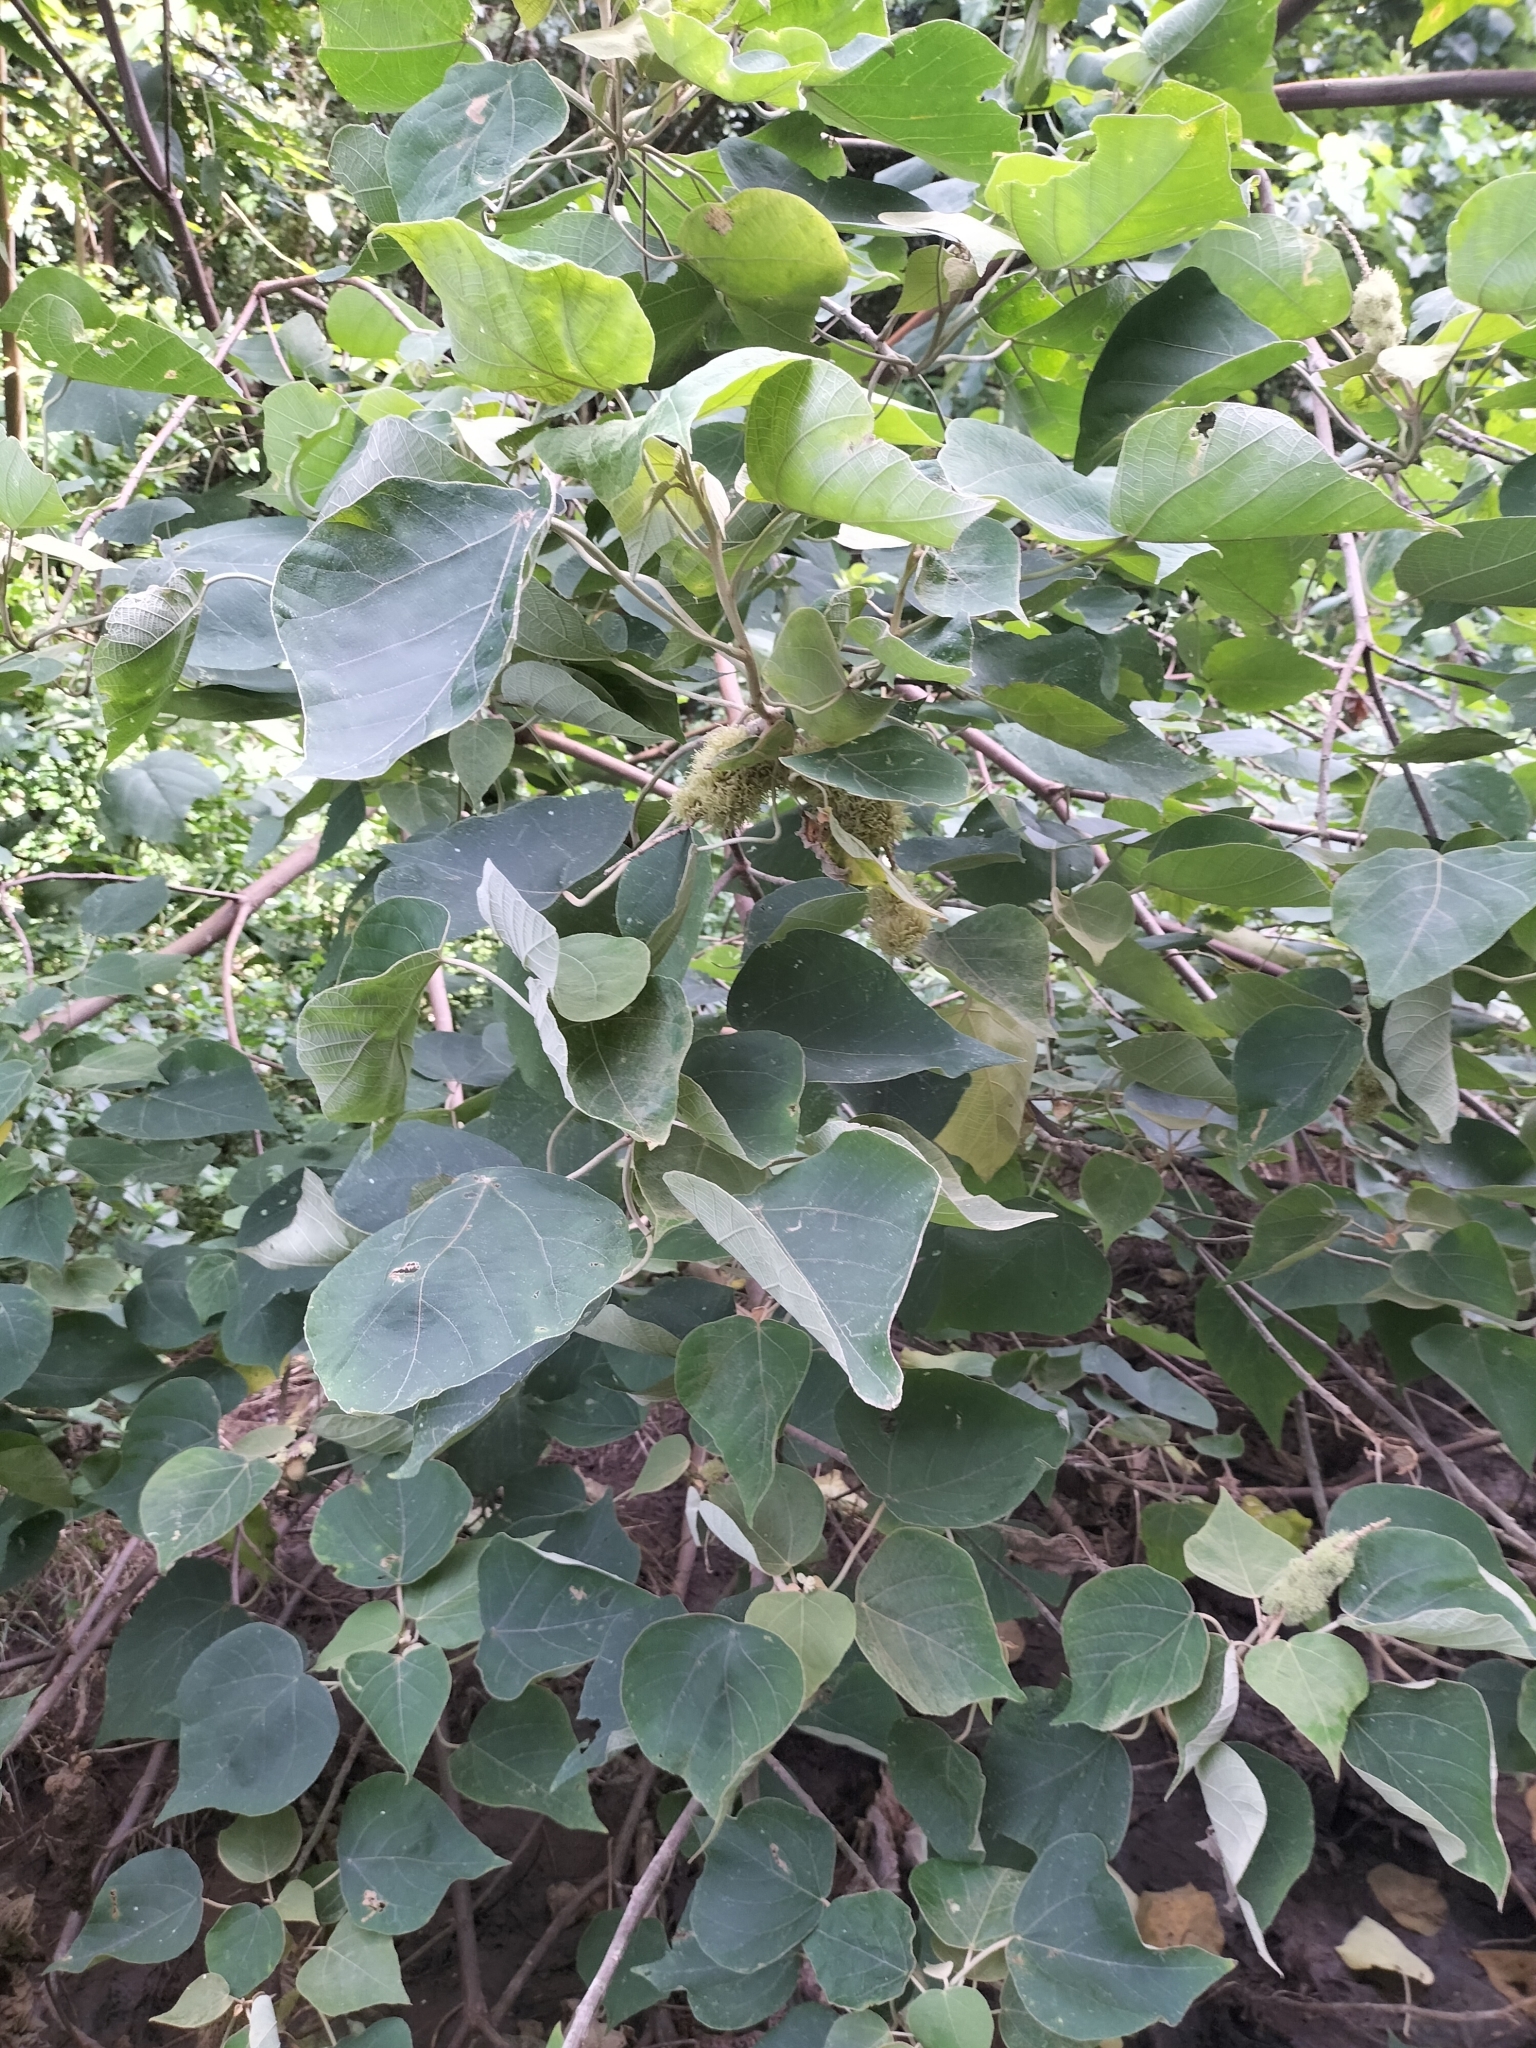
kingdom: Plantae
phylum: Tracheophyta
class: Magnoliopsida
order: Malpighiales
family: Euphorbiaceae
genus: Mallotus
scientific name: Mallotus mollissimus
